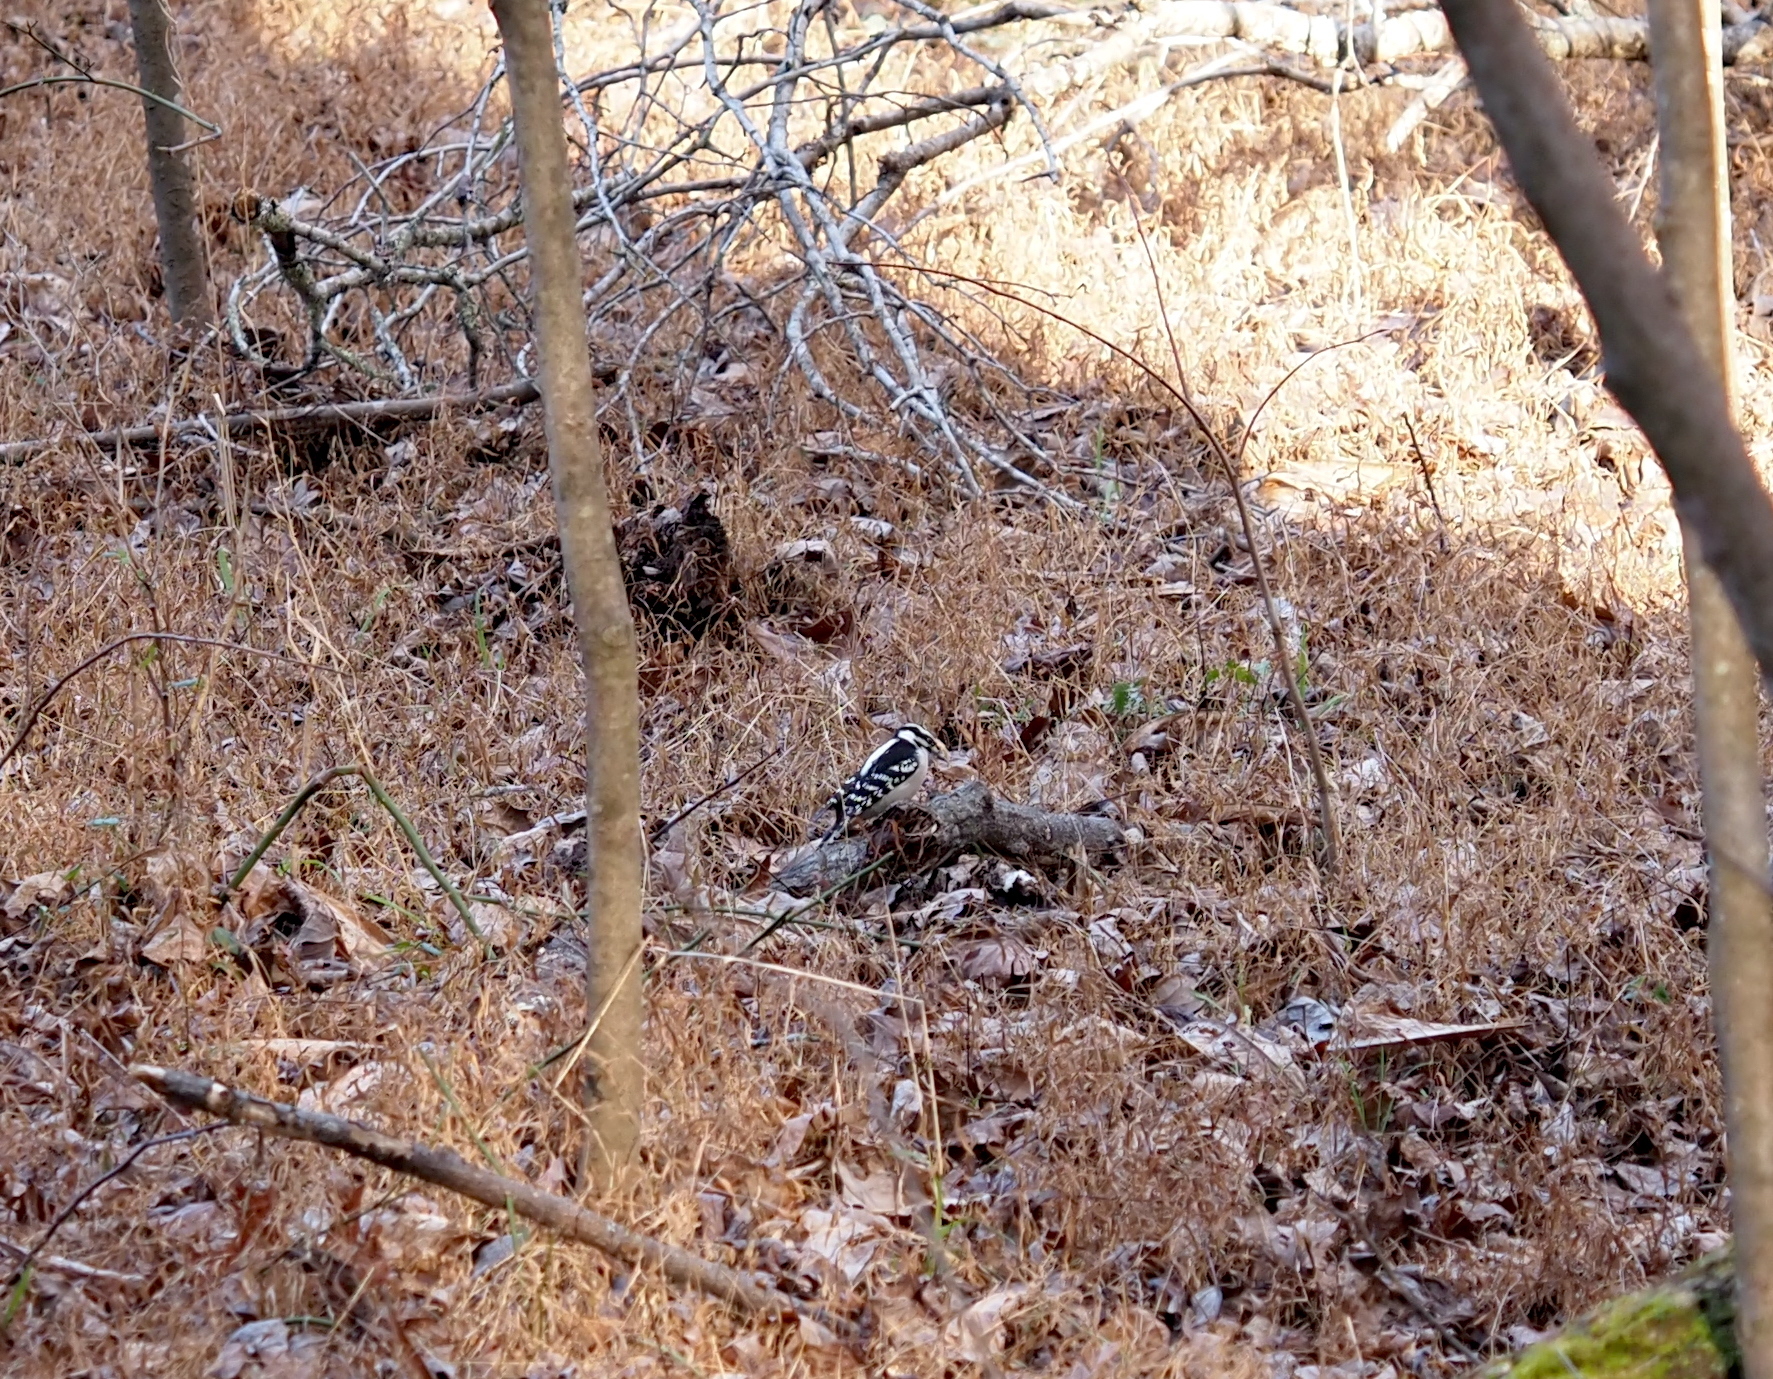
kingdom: Animalia
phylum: Chordata
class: Aves
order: Piciformes
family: Picidae
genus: Dryobates
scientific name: Dryobates pubescens
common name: Downy woodpecker
